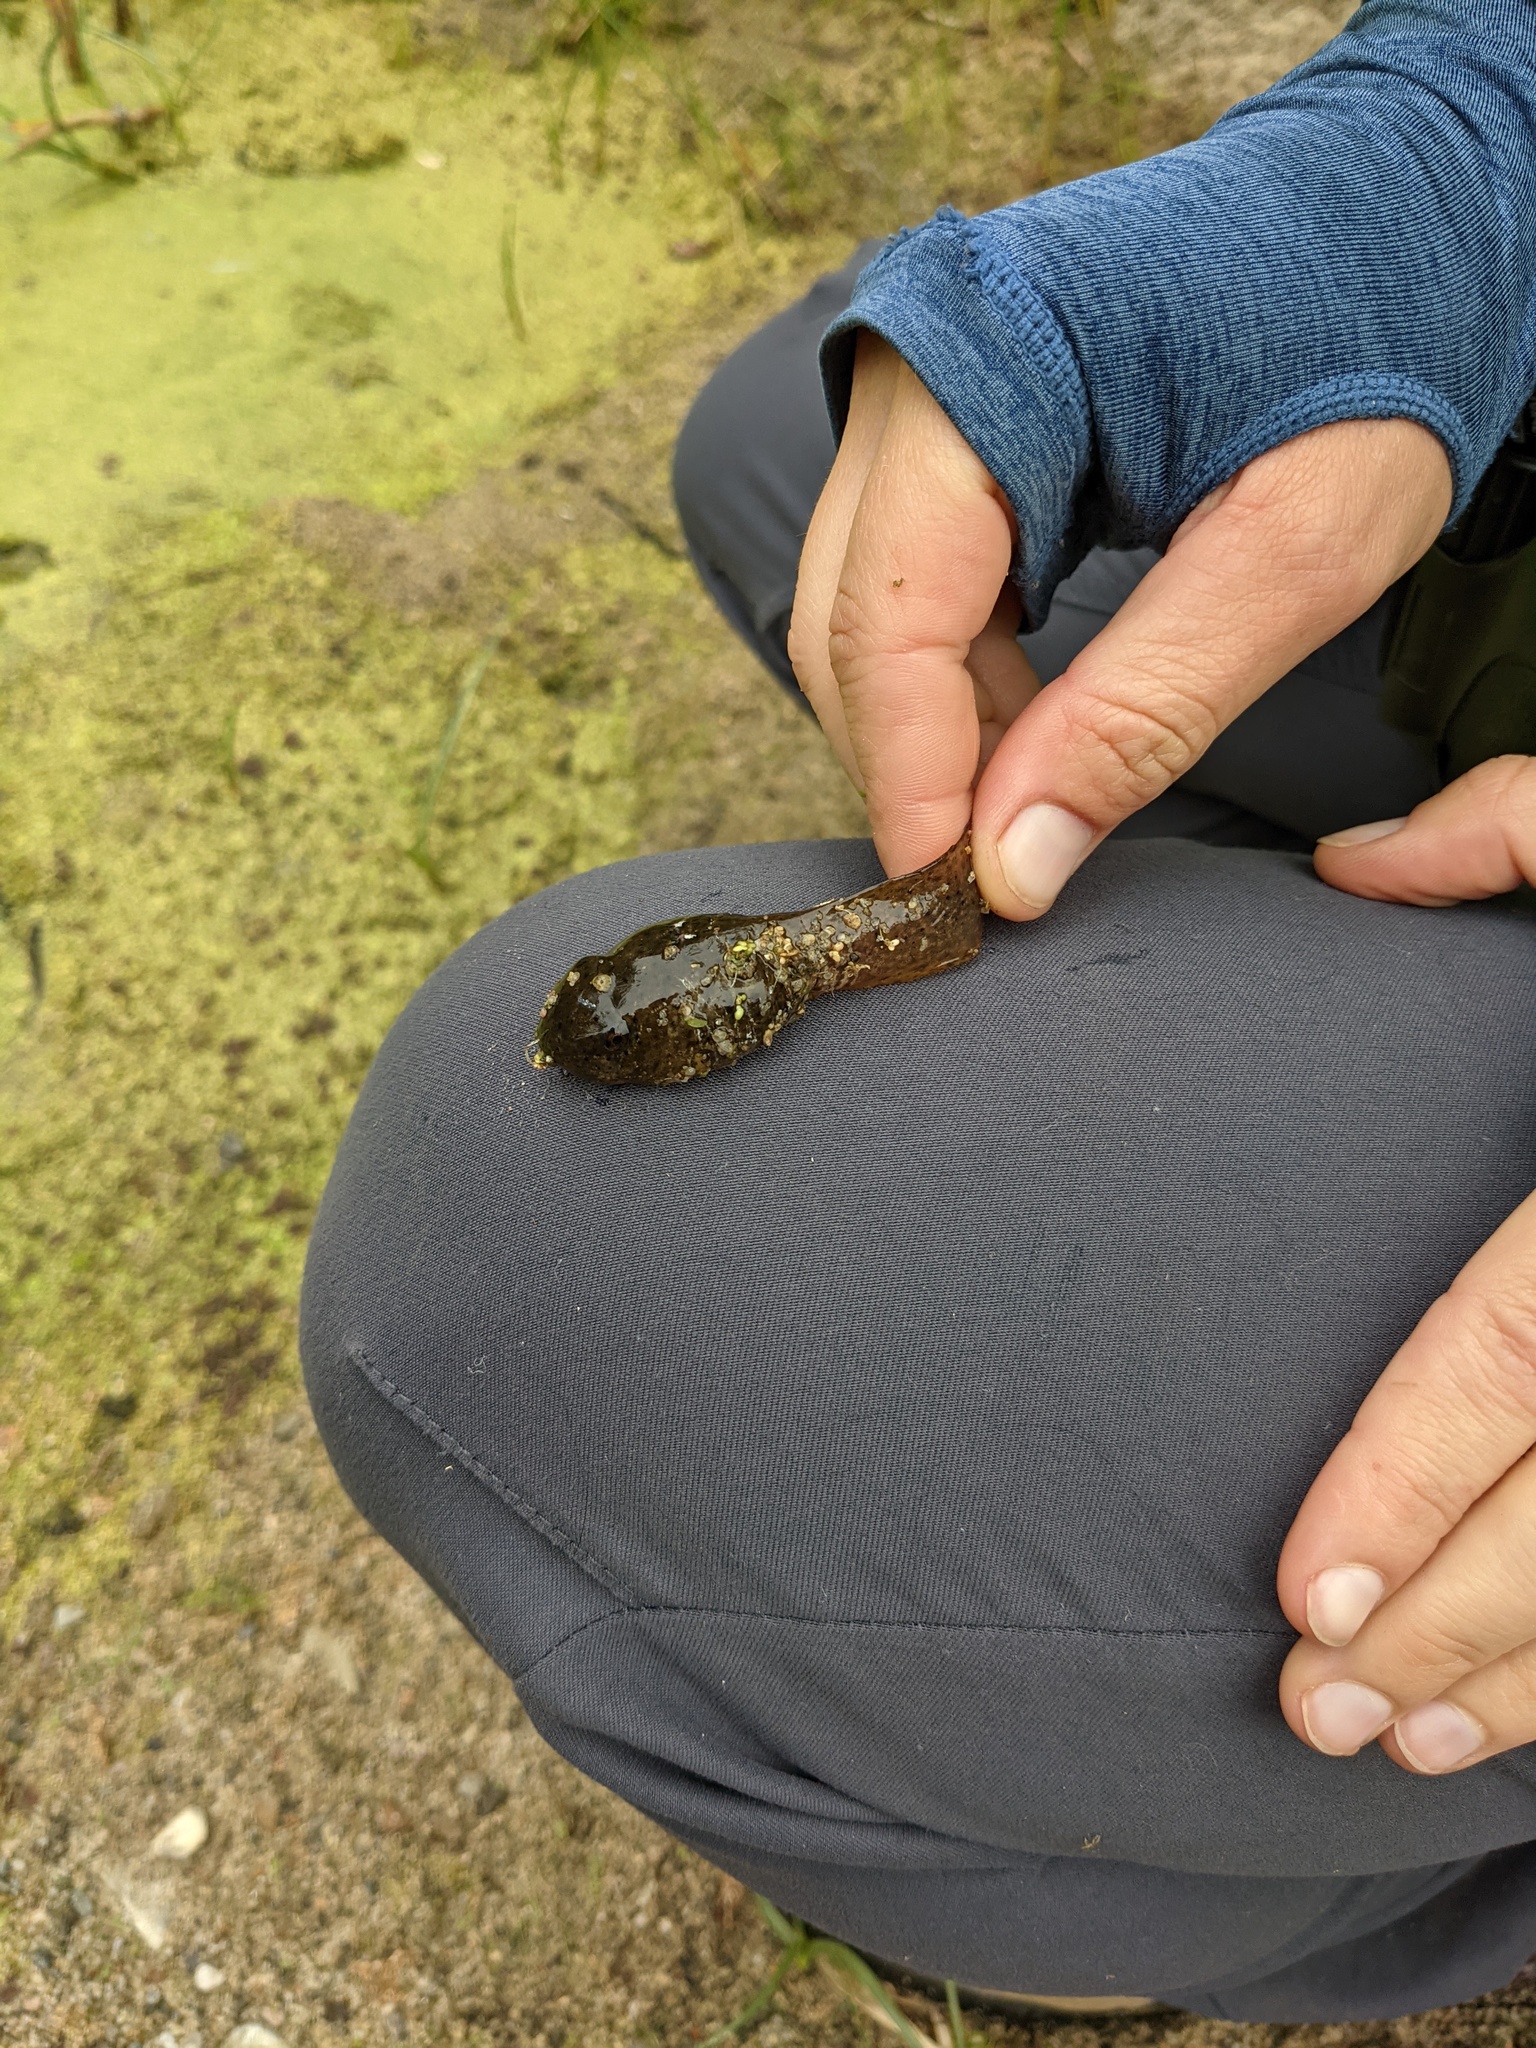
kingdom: Animalia
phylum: Chordata
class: Amphibia
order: Anura
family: Ranidae
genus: Lithobates
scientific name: Lithobates catesbeianus
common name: American bullfrog
